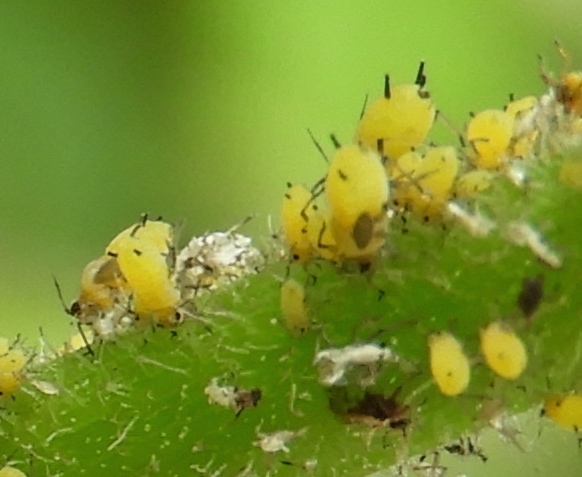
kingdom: Animalia
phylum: Arthropoda
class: Insecta
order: Hemiptera
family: Aphididae
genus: Aphis
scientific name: Aphis nerii
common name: Oleander aphid
